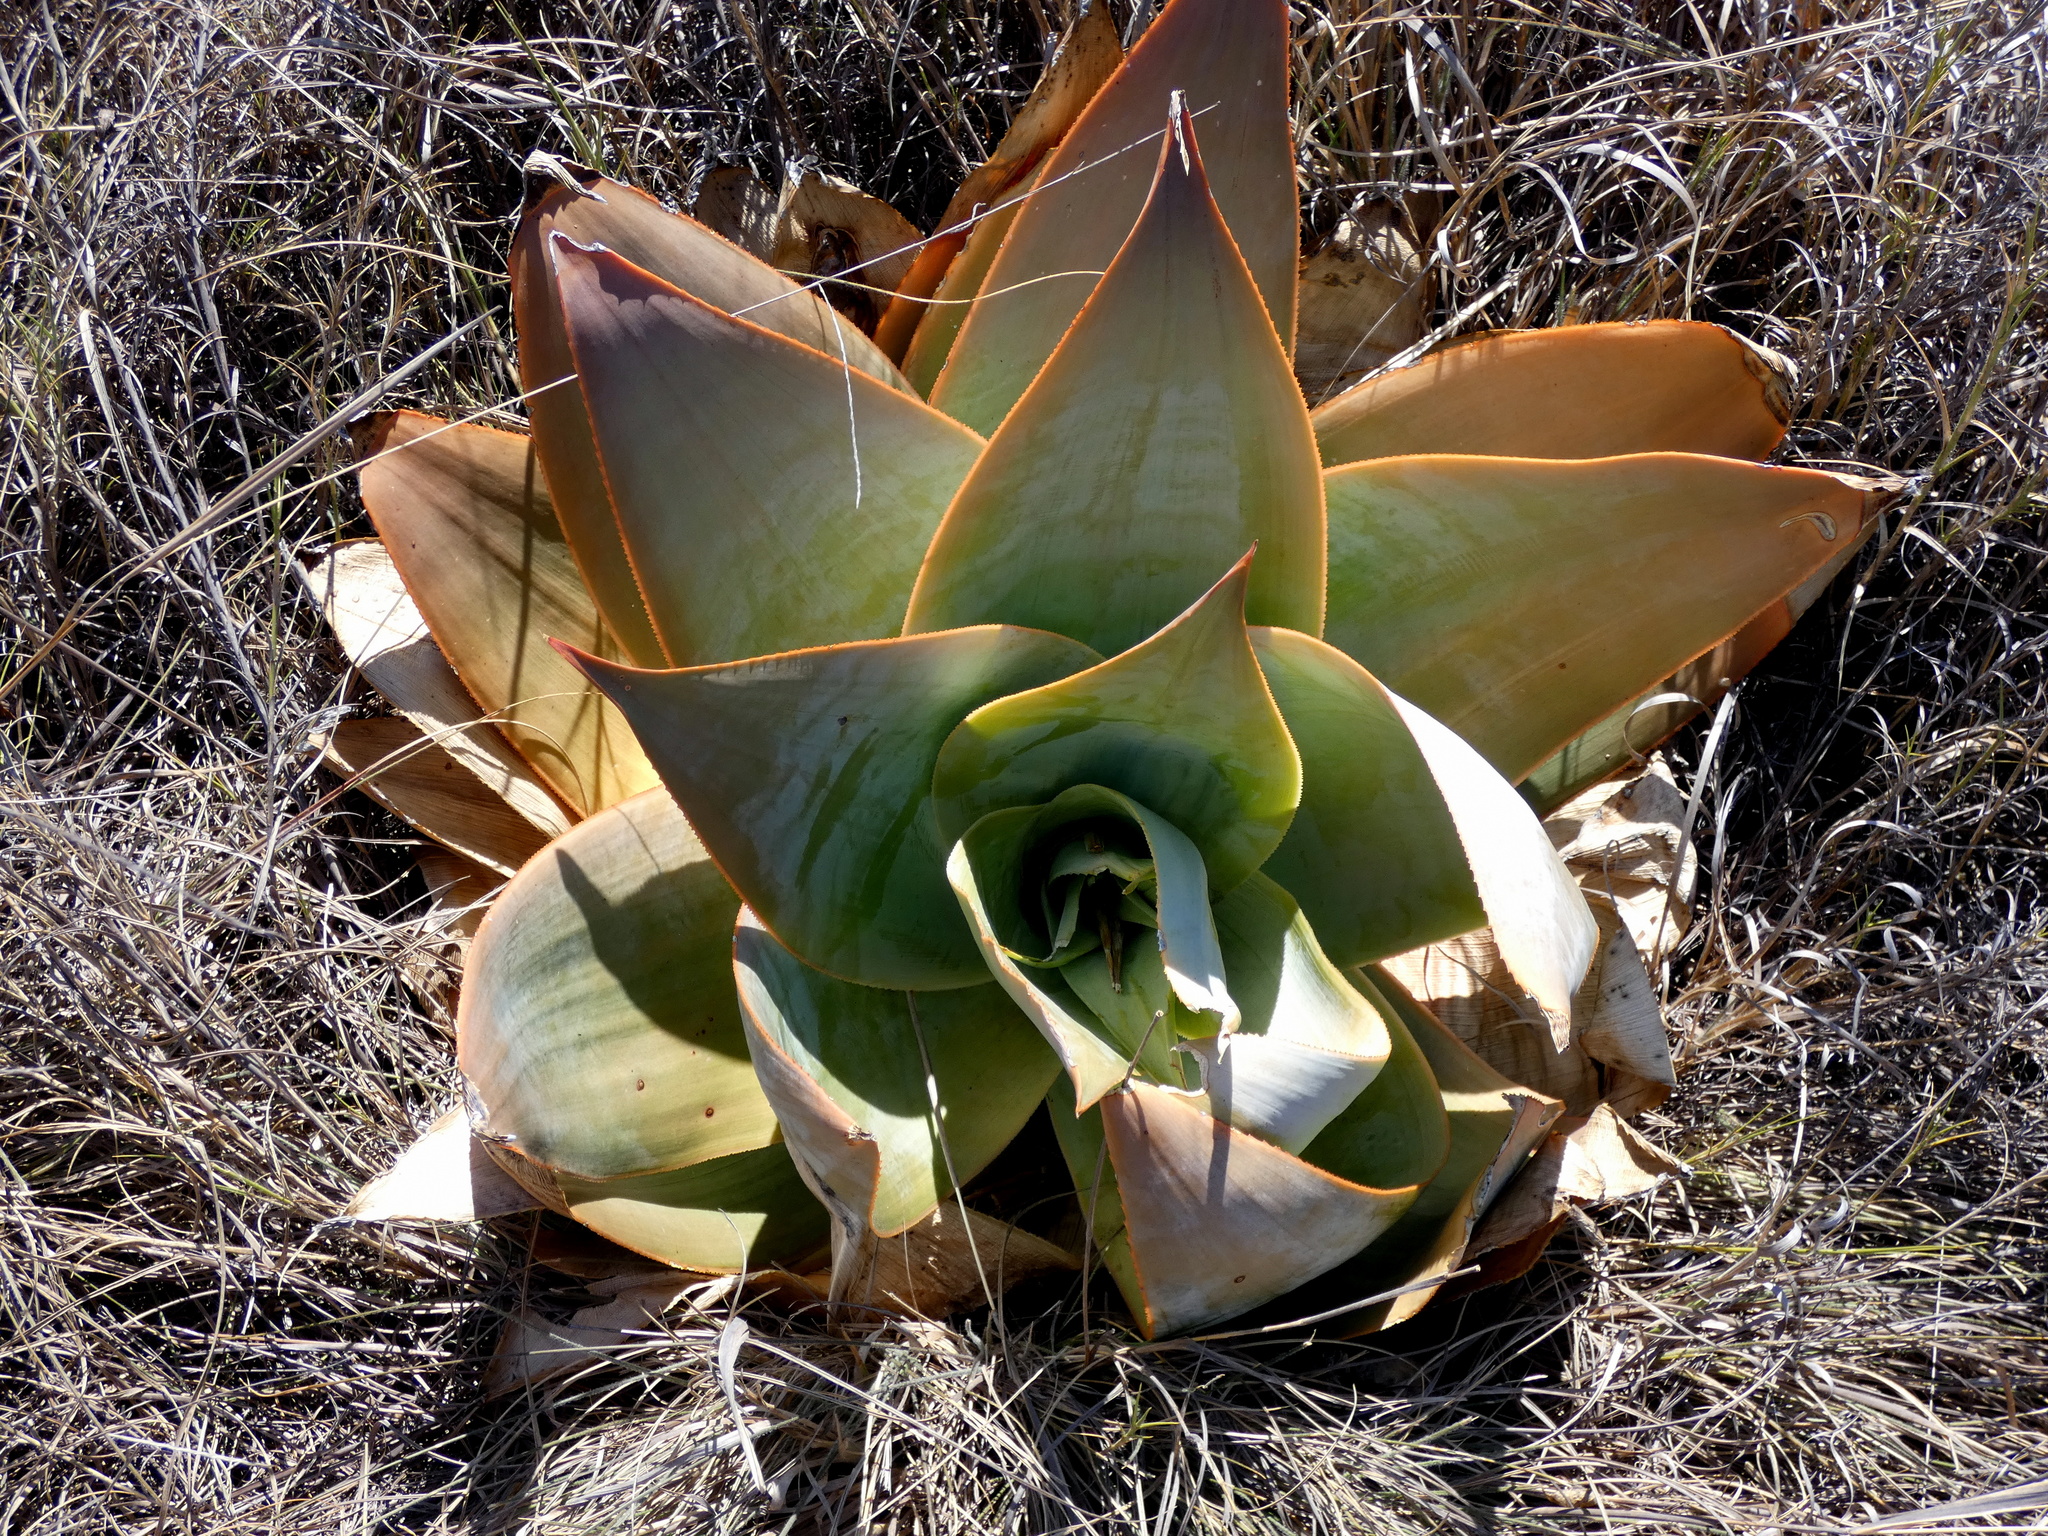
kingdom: Plantae
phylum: Tracheophyta
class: Liliopsida
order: Asparagales
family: Asphodelaceae
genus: Aloe
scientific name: Aloe imalotensis
